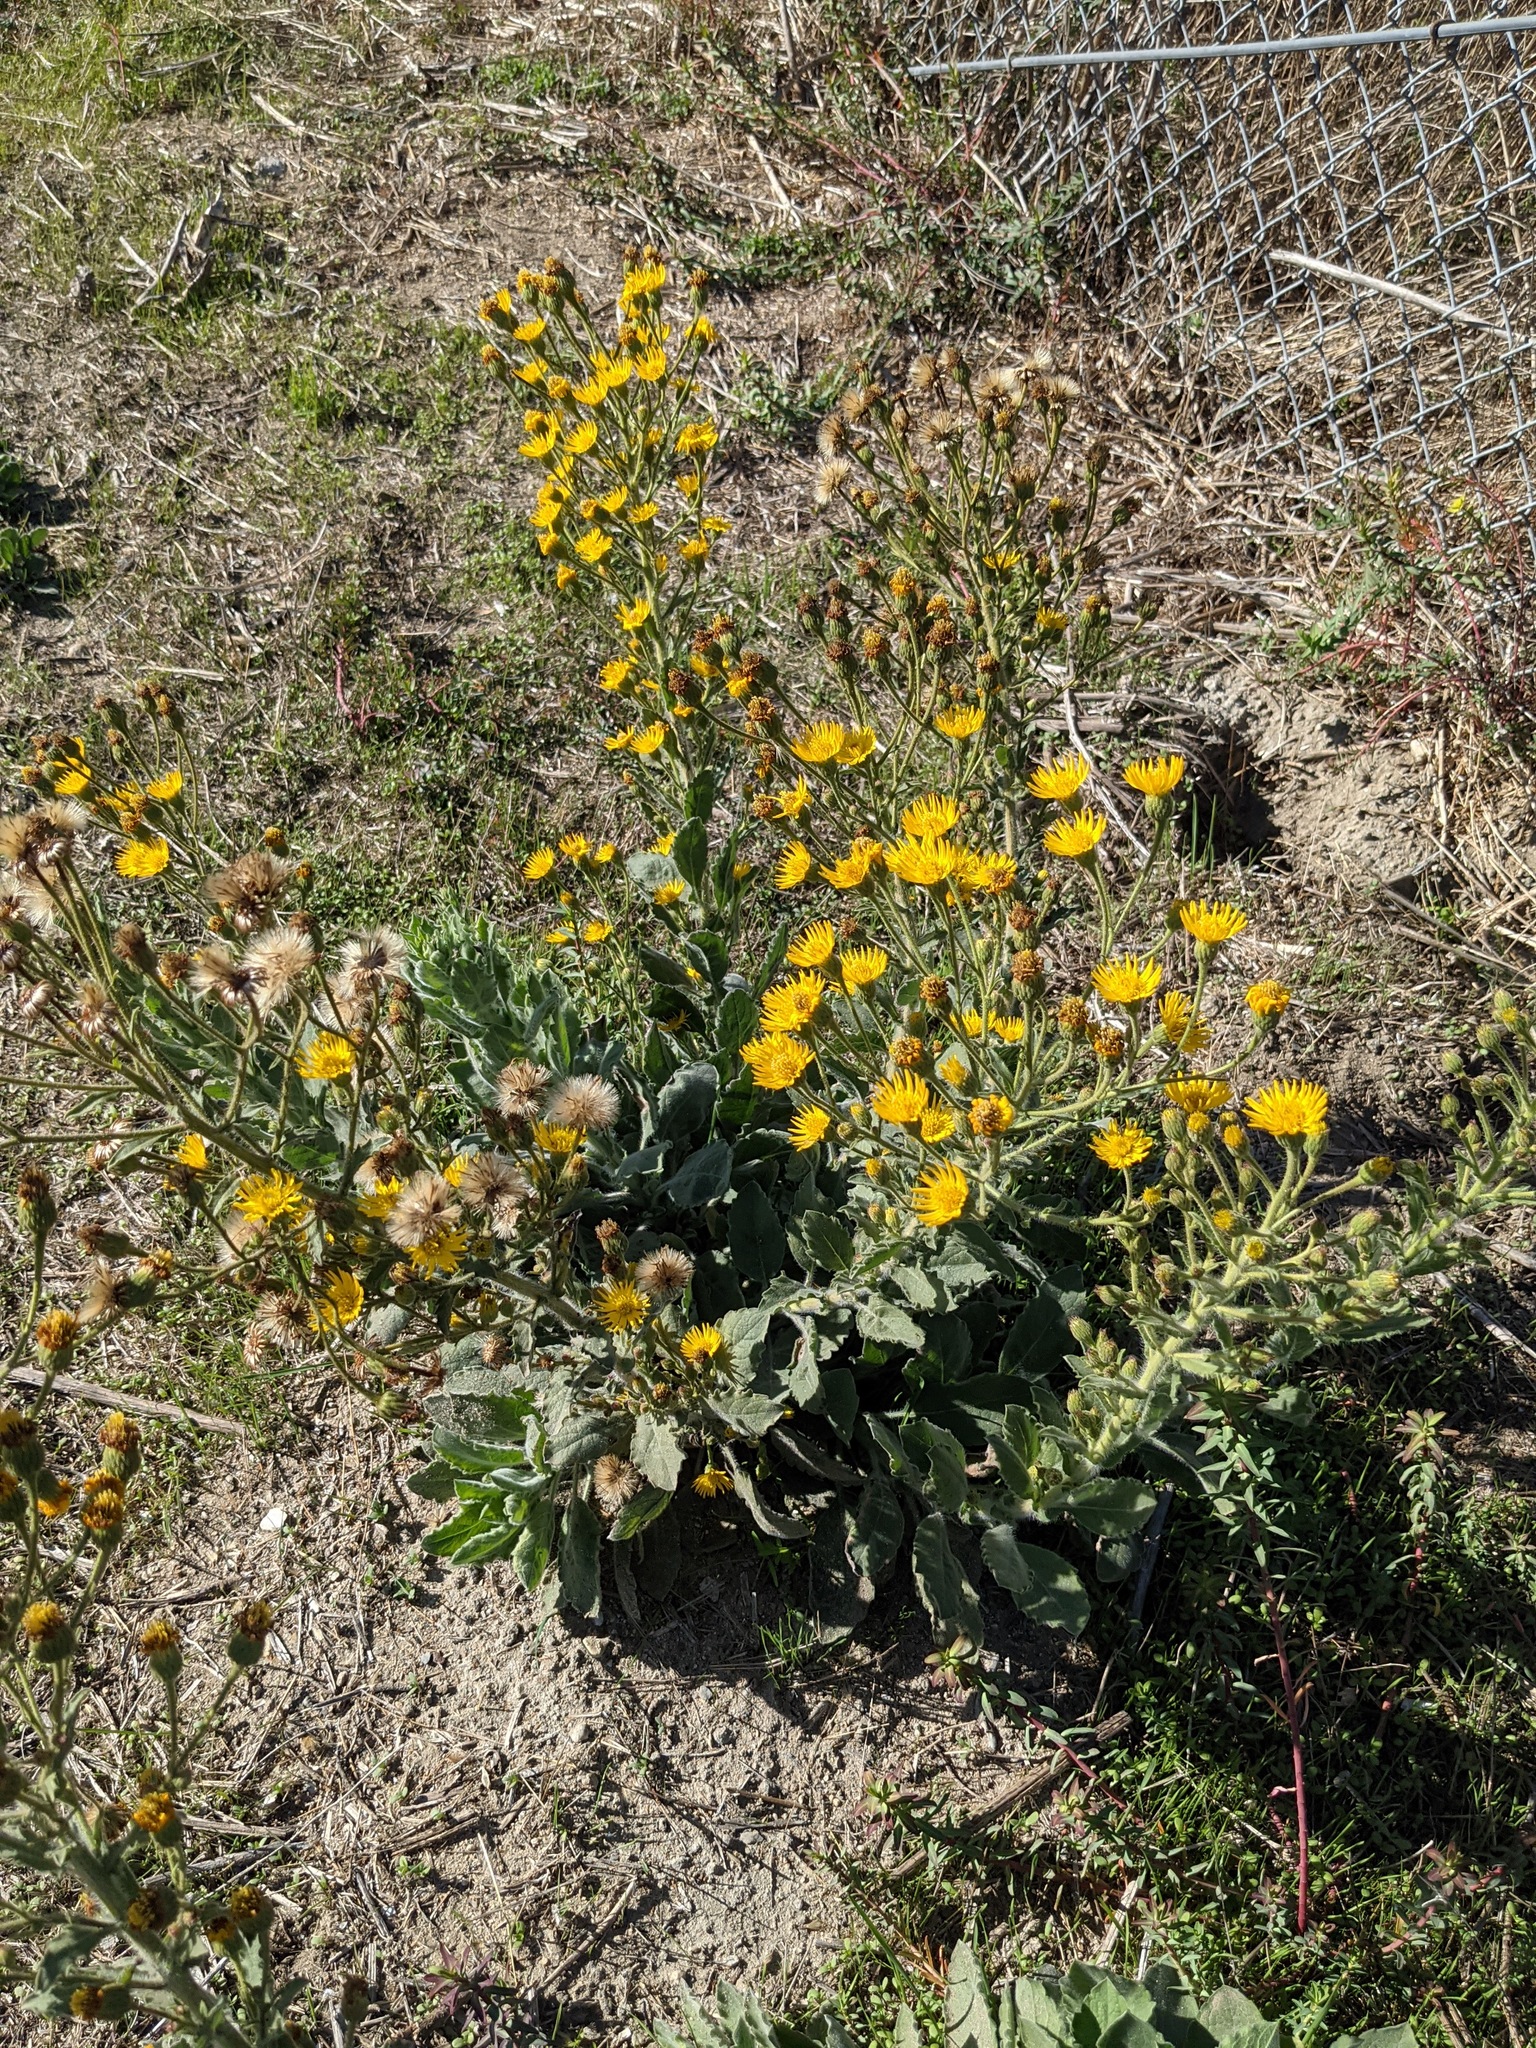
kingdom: Plantae
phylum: Tracheophyta
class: Magnoliopsida
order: Asterales
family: Asteraceae
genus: Heterotheca
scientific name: Heterotheca grandiflora
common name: Telegraphweed
